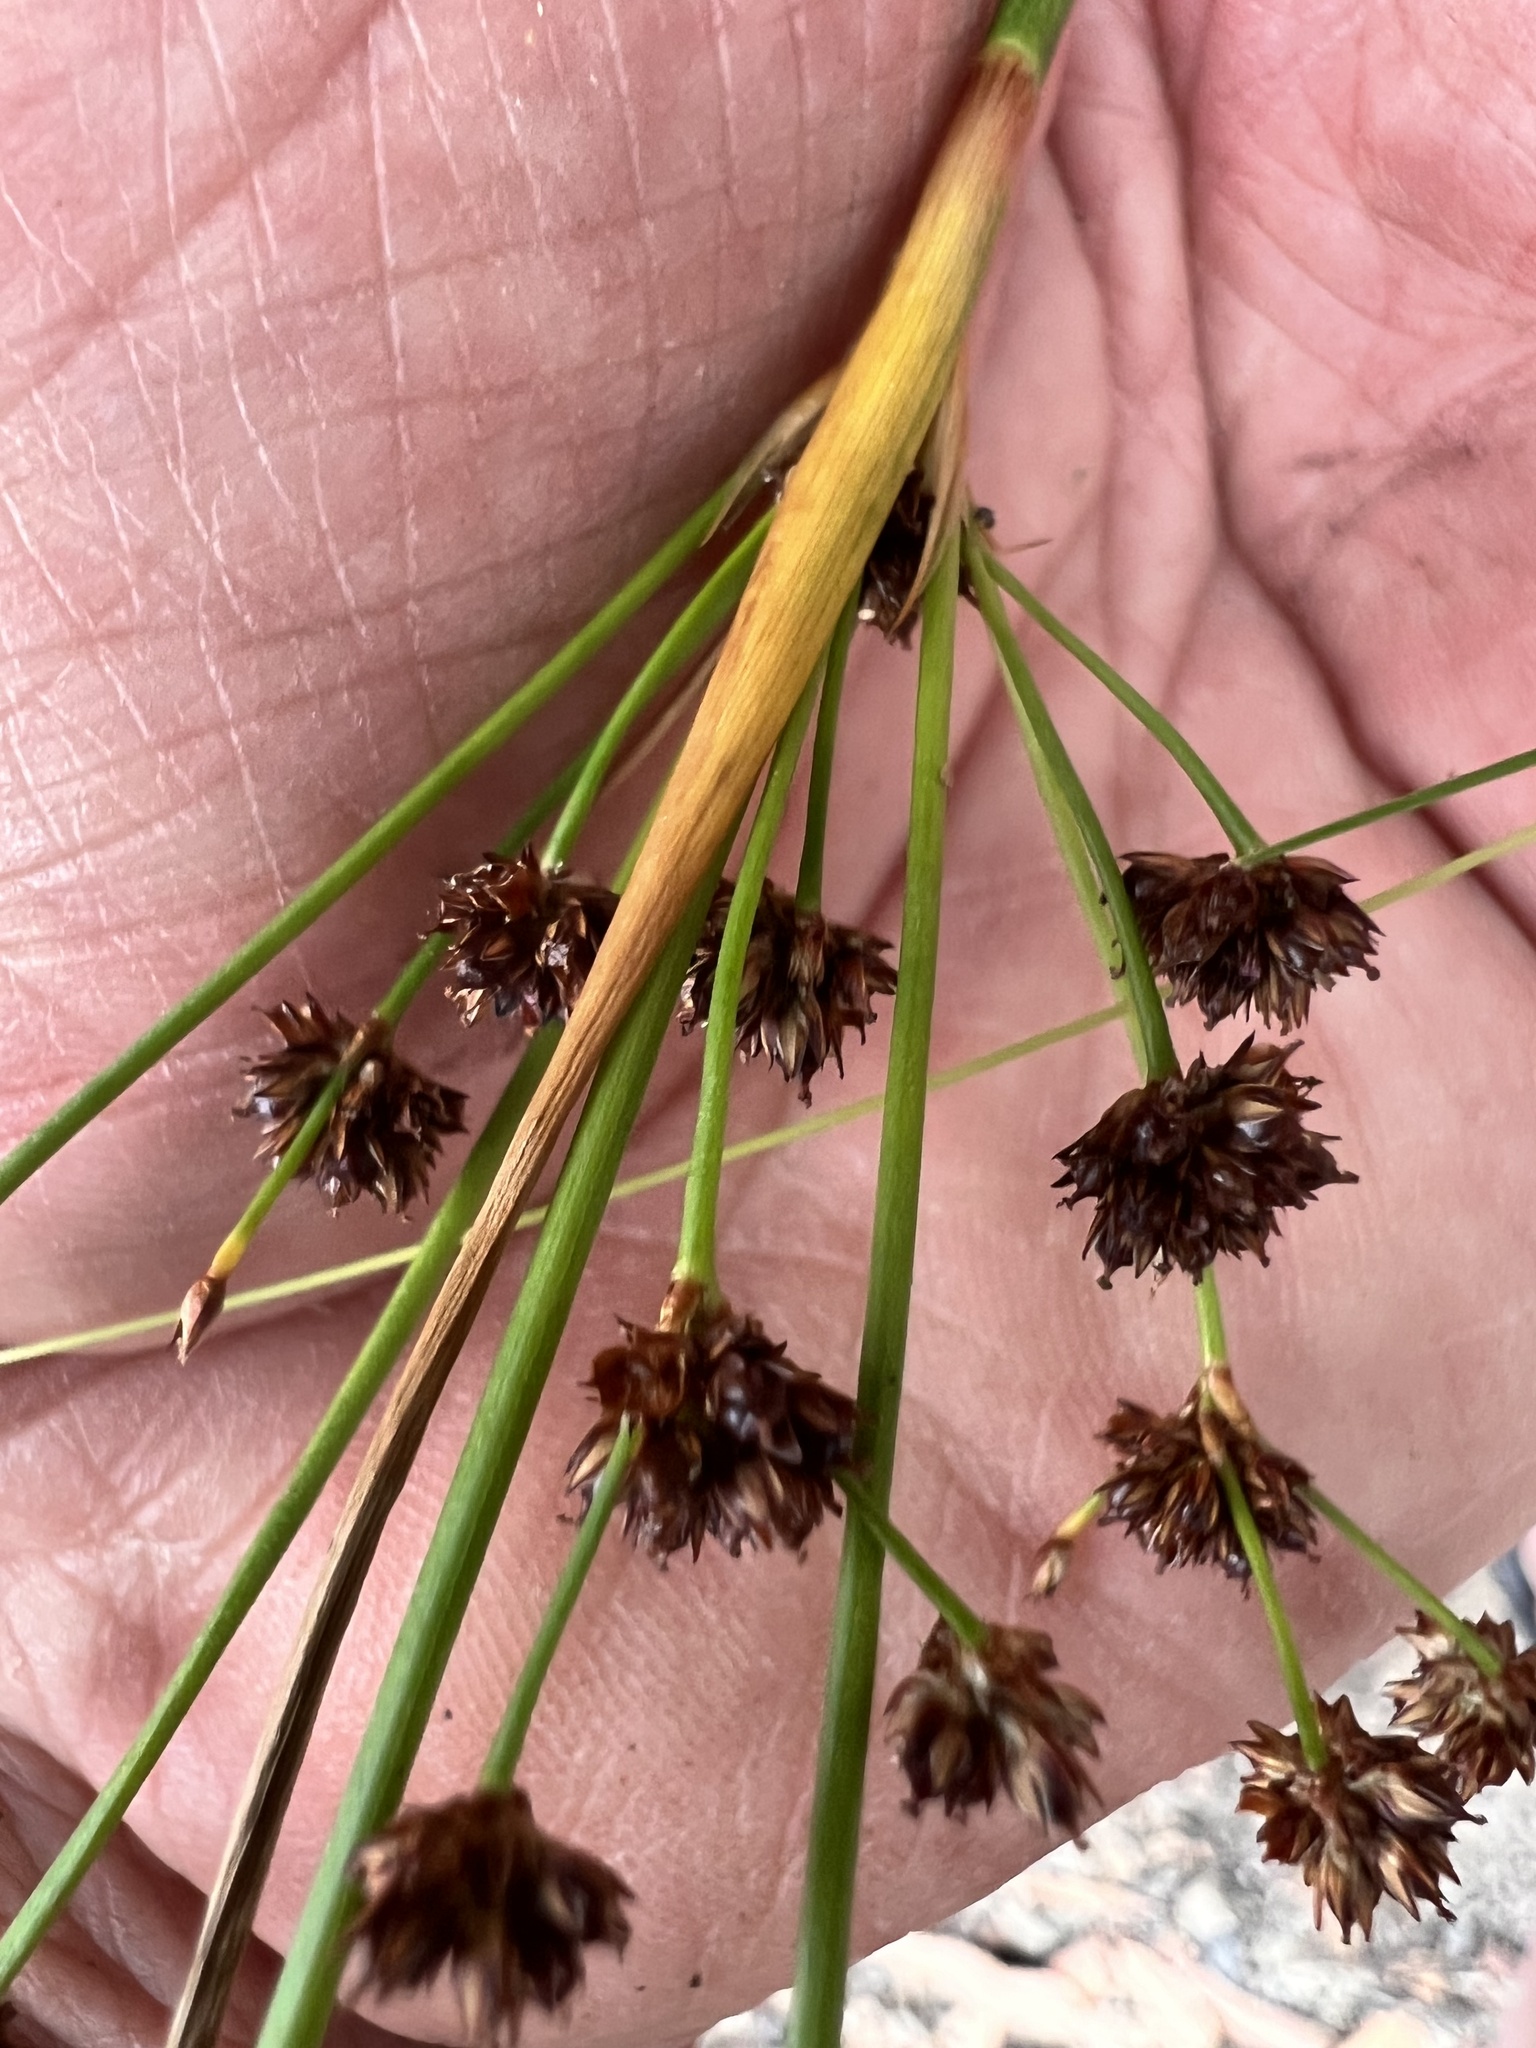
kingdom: Plantae
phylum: Tracheophyta
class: Liliopsida
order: Poales
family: Juncaceae
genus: Juncus
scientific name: Juncus planifolius
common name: Broadleaf rush
